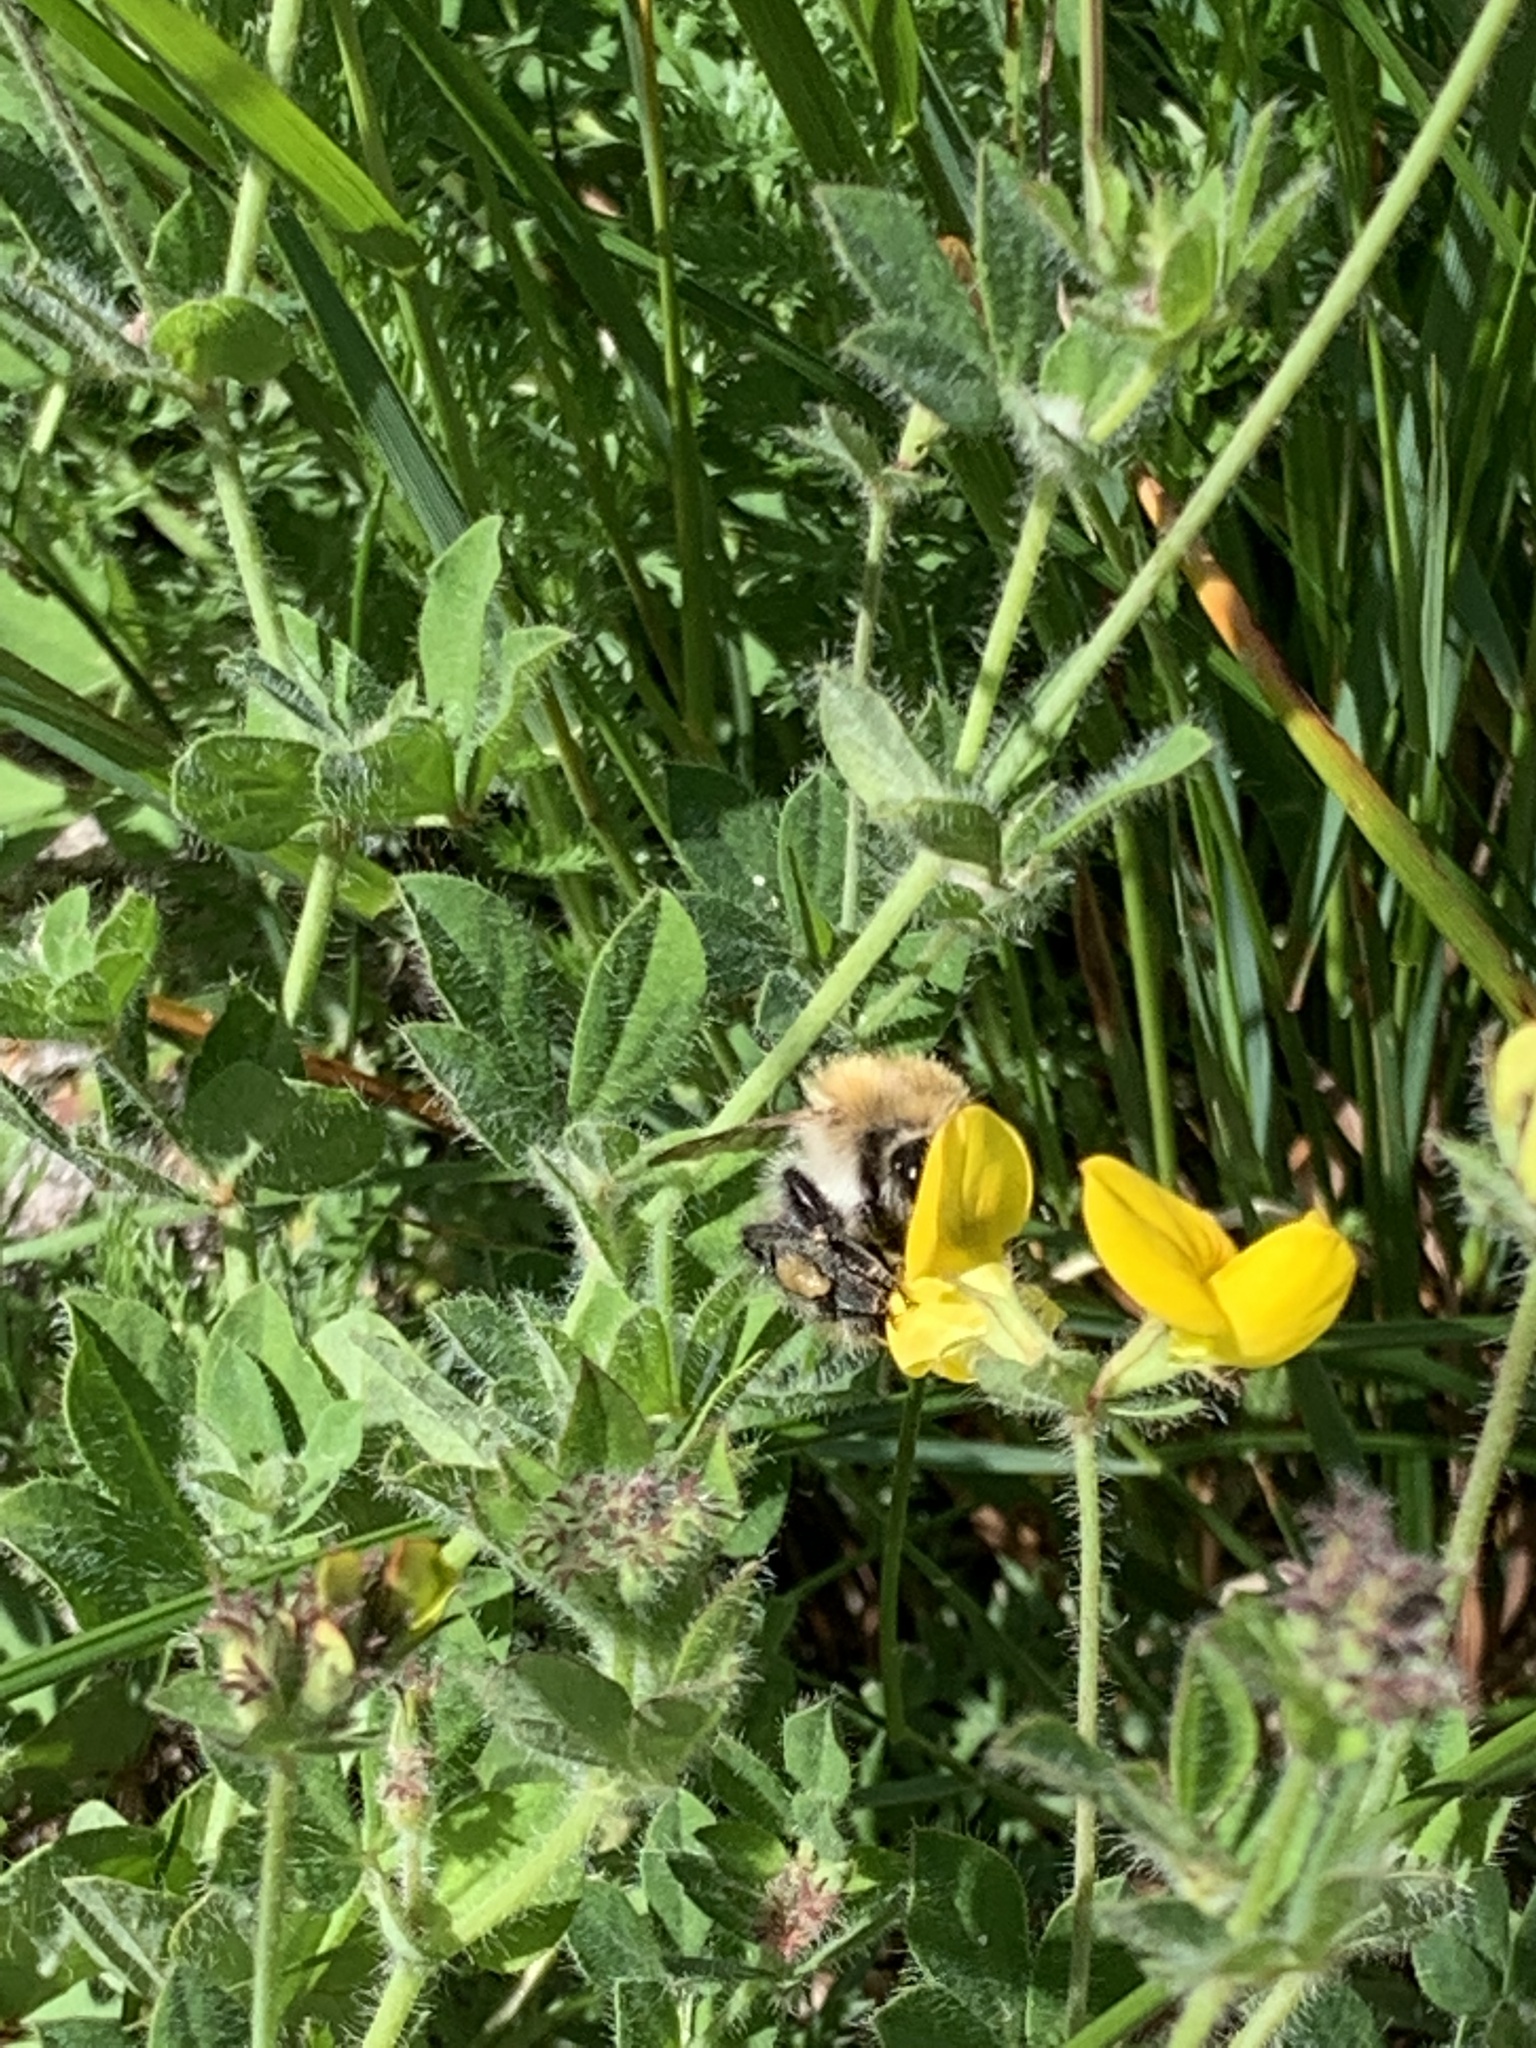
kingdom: Animalia
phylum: Arthropoda
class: Insecta
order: Hymenoptera
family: Apidae
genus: Bombus
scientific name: Bombus pascuorum
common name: Common carder bee
